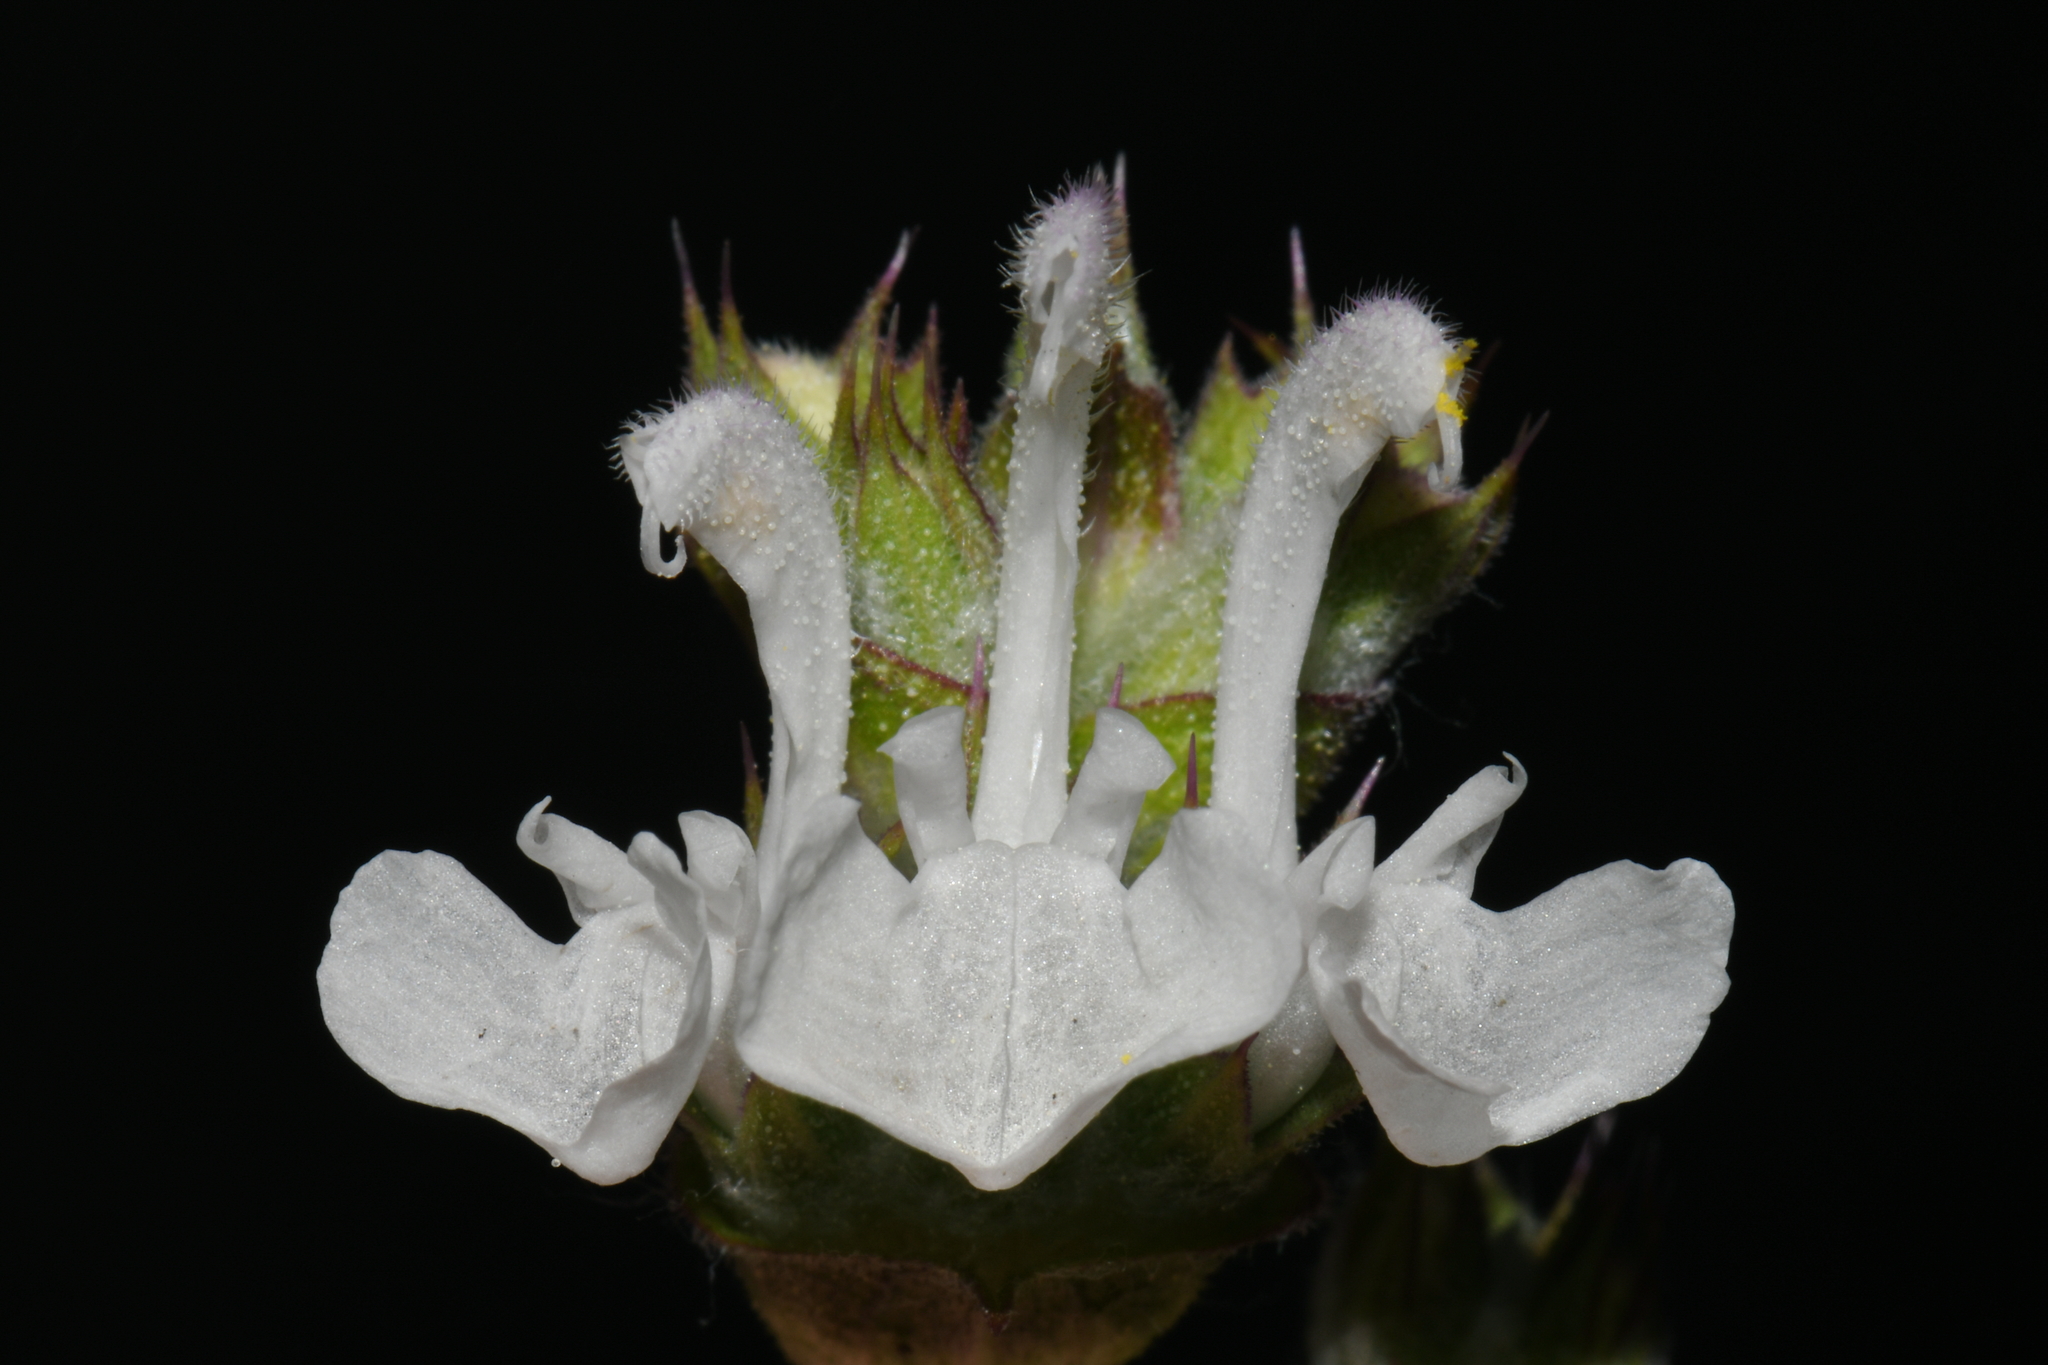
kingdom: Plantae
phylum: Tracheophyta
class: Magnoliopsida
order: Lamiales
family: Lamiaceae
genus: Salvia
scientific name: Salvia aethiopis
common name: Mediterranean sage
